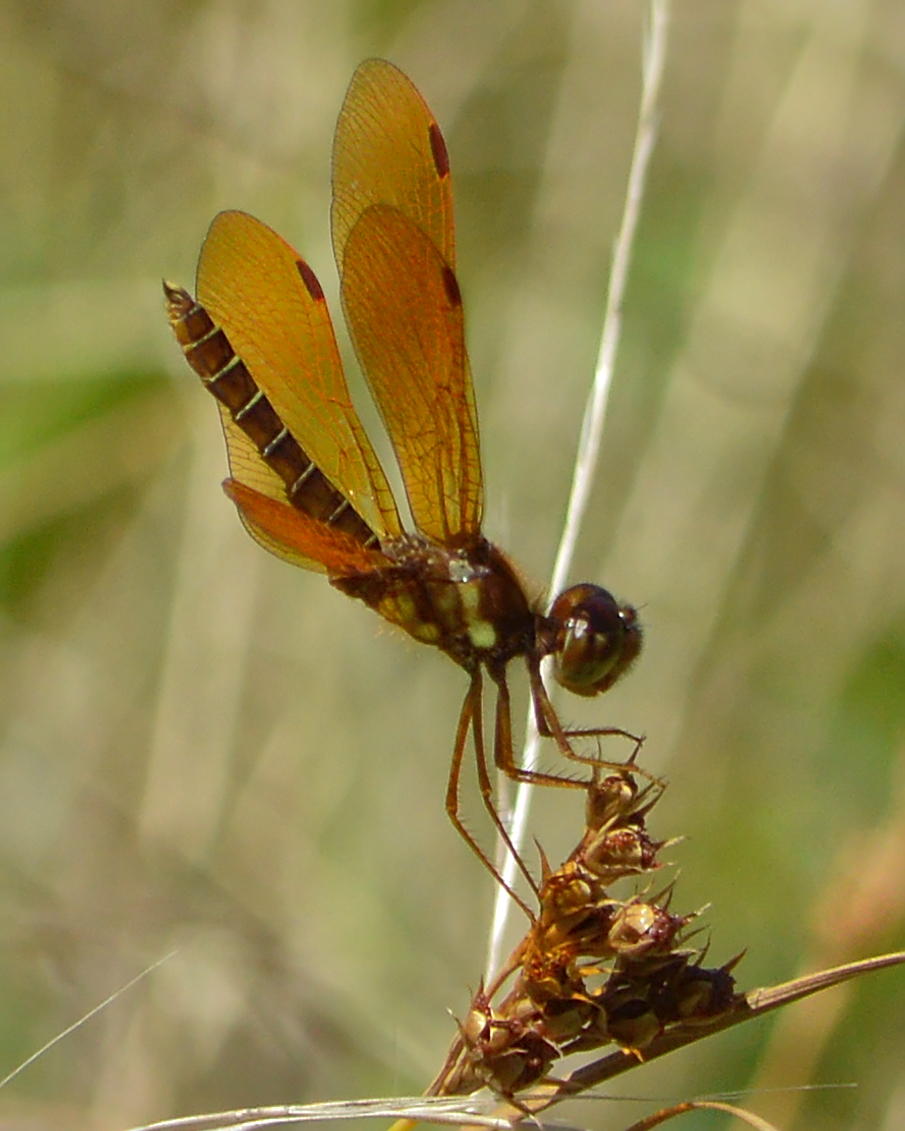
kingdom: Animalia
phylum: Arthropoda
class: Insecta
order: Odonata
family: Libellulidae
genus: Perithemis
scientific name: Perithemis tenera
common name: Eastern amberwing
